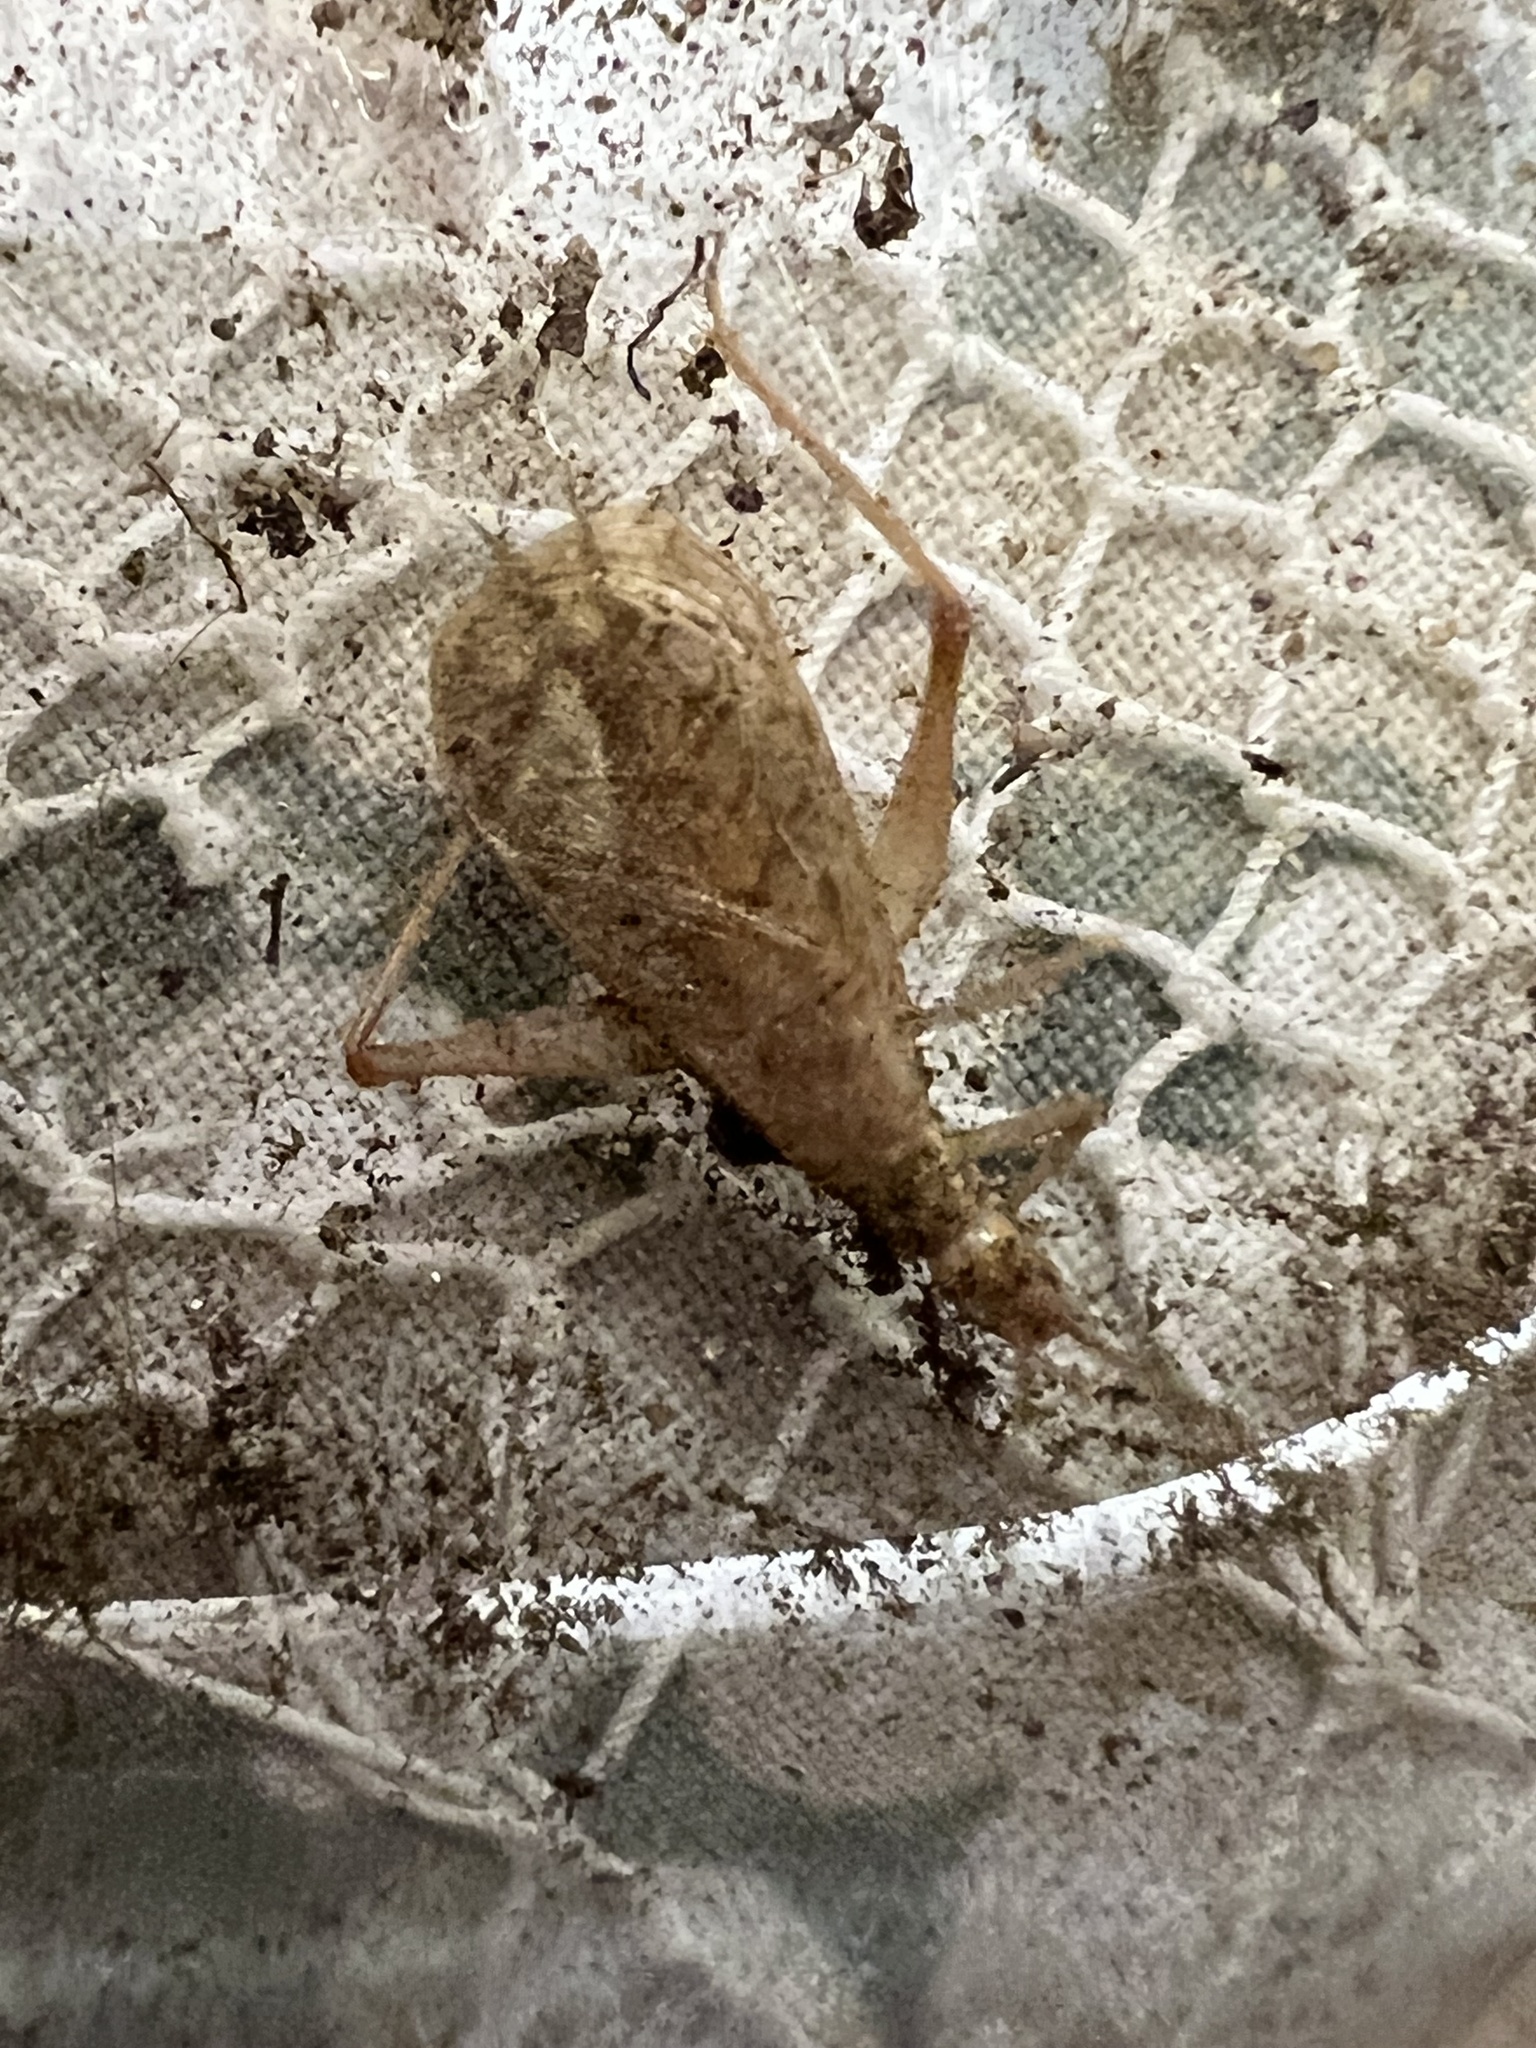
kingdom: Animalia
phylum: Arthropoda
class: Insecta
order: Orthoptera
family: Gryllidae
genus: Oecanthus
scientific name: Oecanthus californicus
